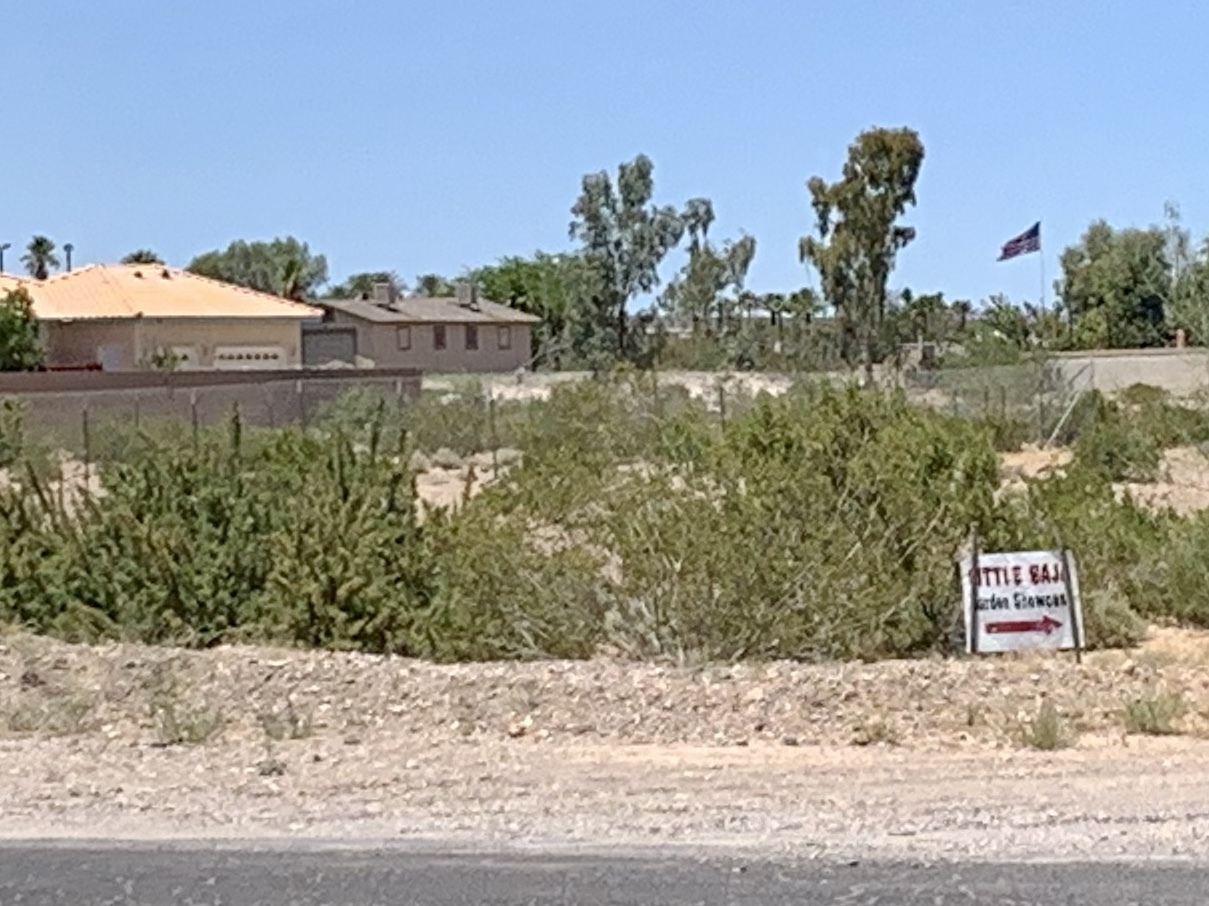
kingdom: Plantae
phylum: Tracheophyta
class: Magnoliopsida
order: Zygophyllales
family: Zygophyllaceae
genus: Larrea
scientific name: Larrea tridentata
